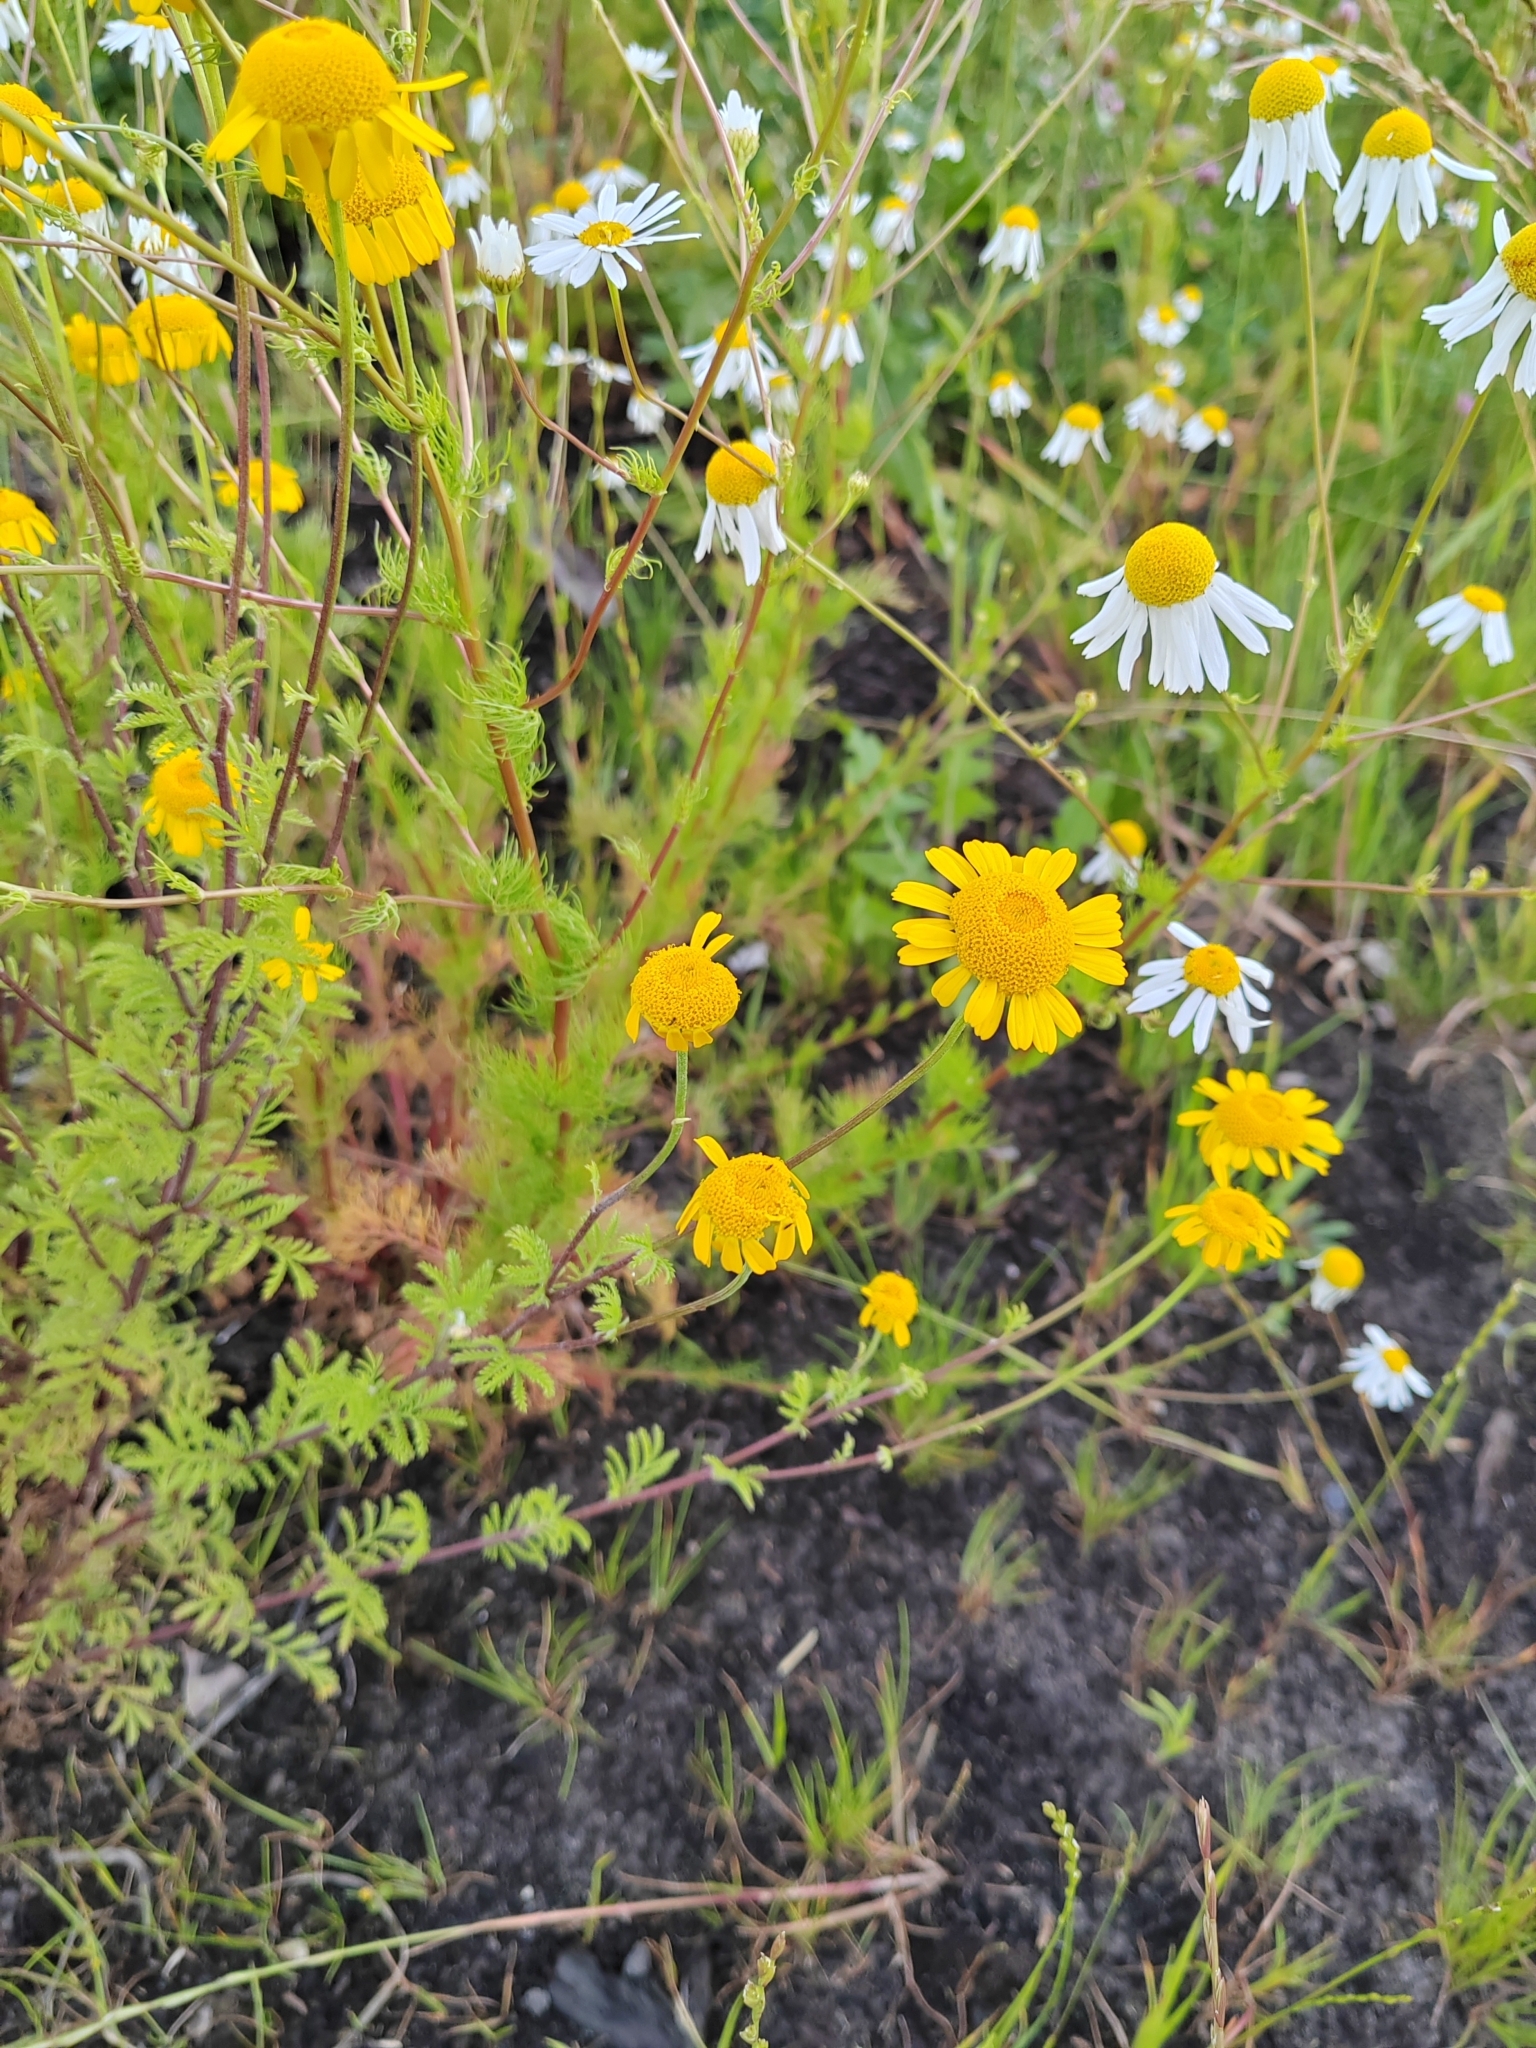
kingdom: Plantae
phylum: Tracheophyta
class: Magnoliopsida
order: Asterales
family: Asteraceae
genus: Cota
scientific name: Cota tinctoria
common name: Golden chamomile
